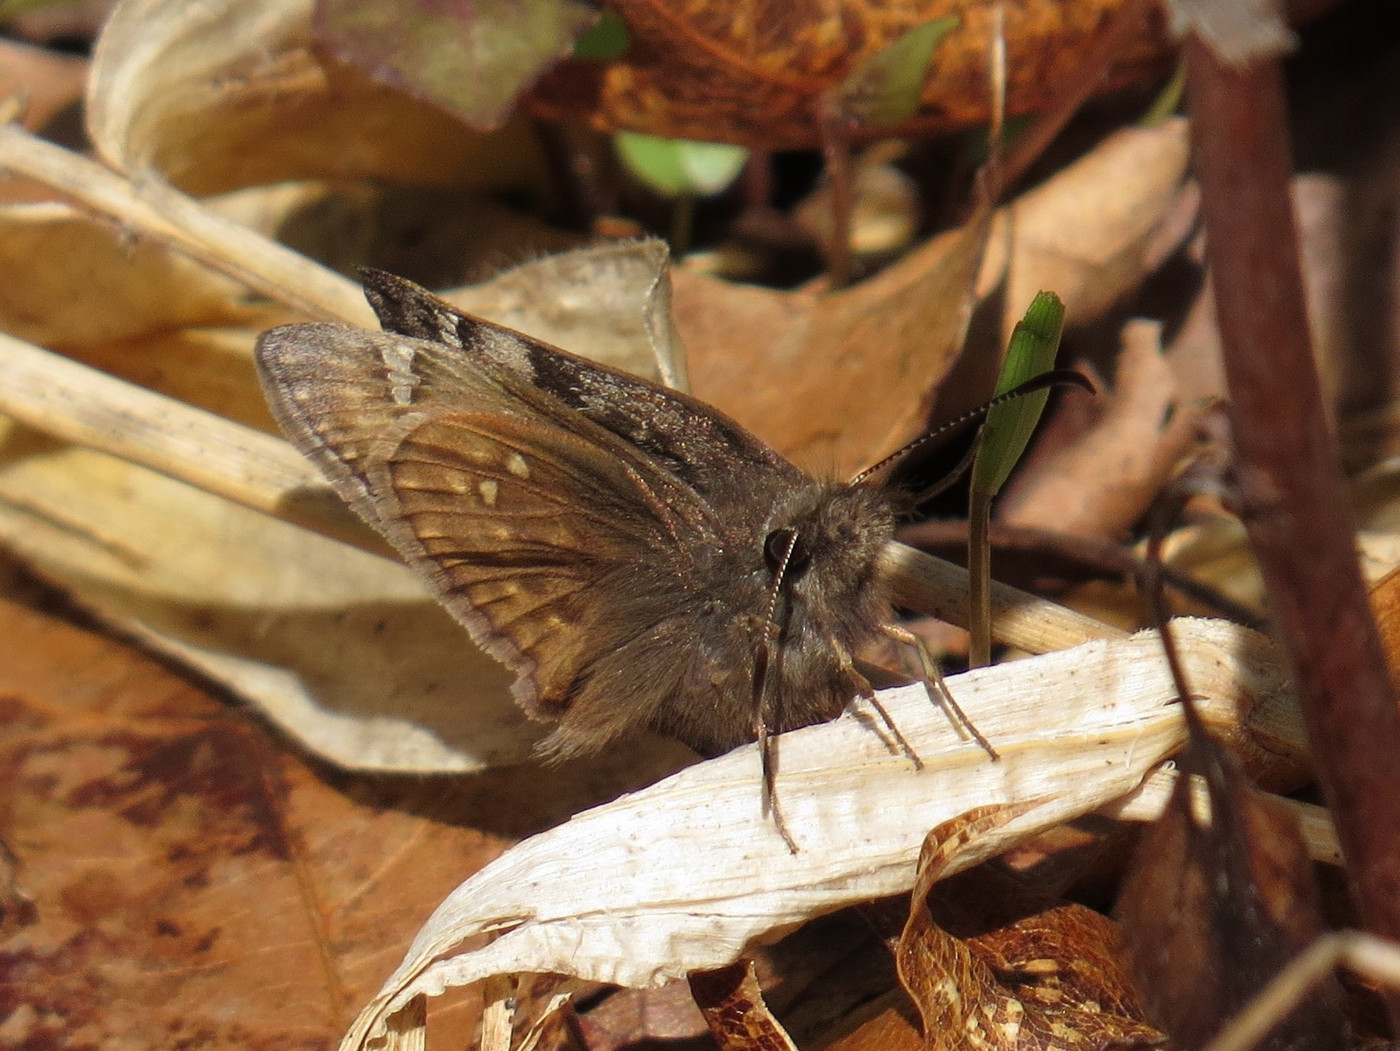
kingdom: Animalia
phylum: Arthropoda
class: Insecta
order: Lepidoptera
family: Hesperiidae
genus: Erynnis
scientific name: Erynnis juvenalis
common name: Juvenal's duskywing
